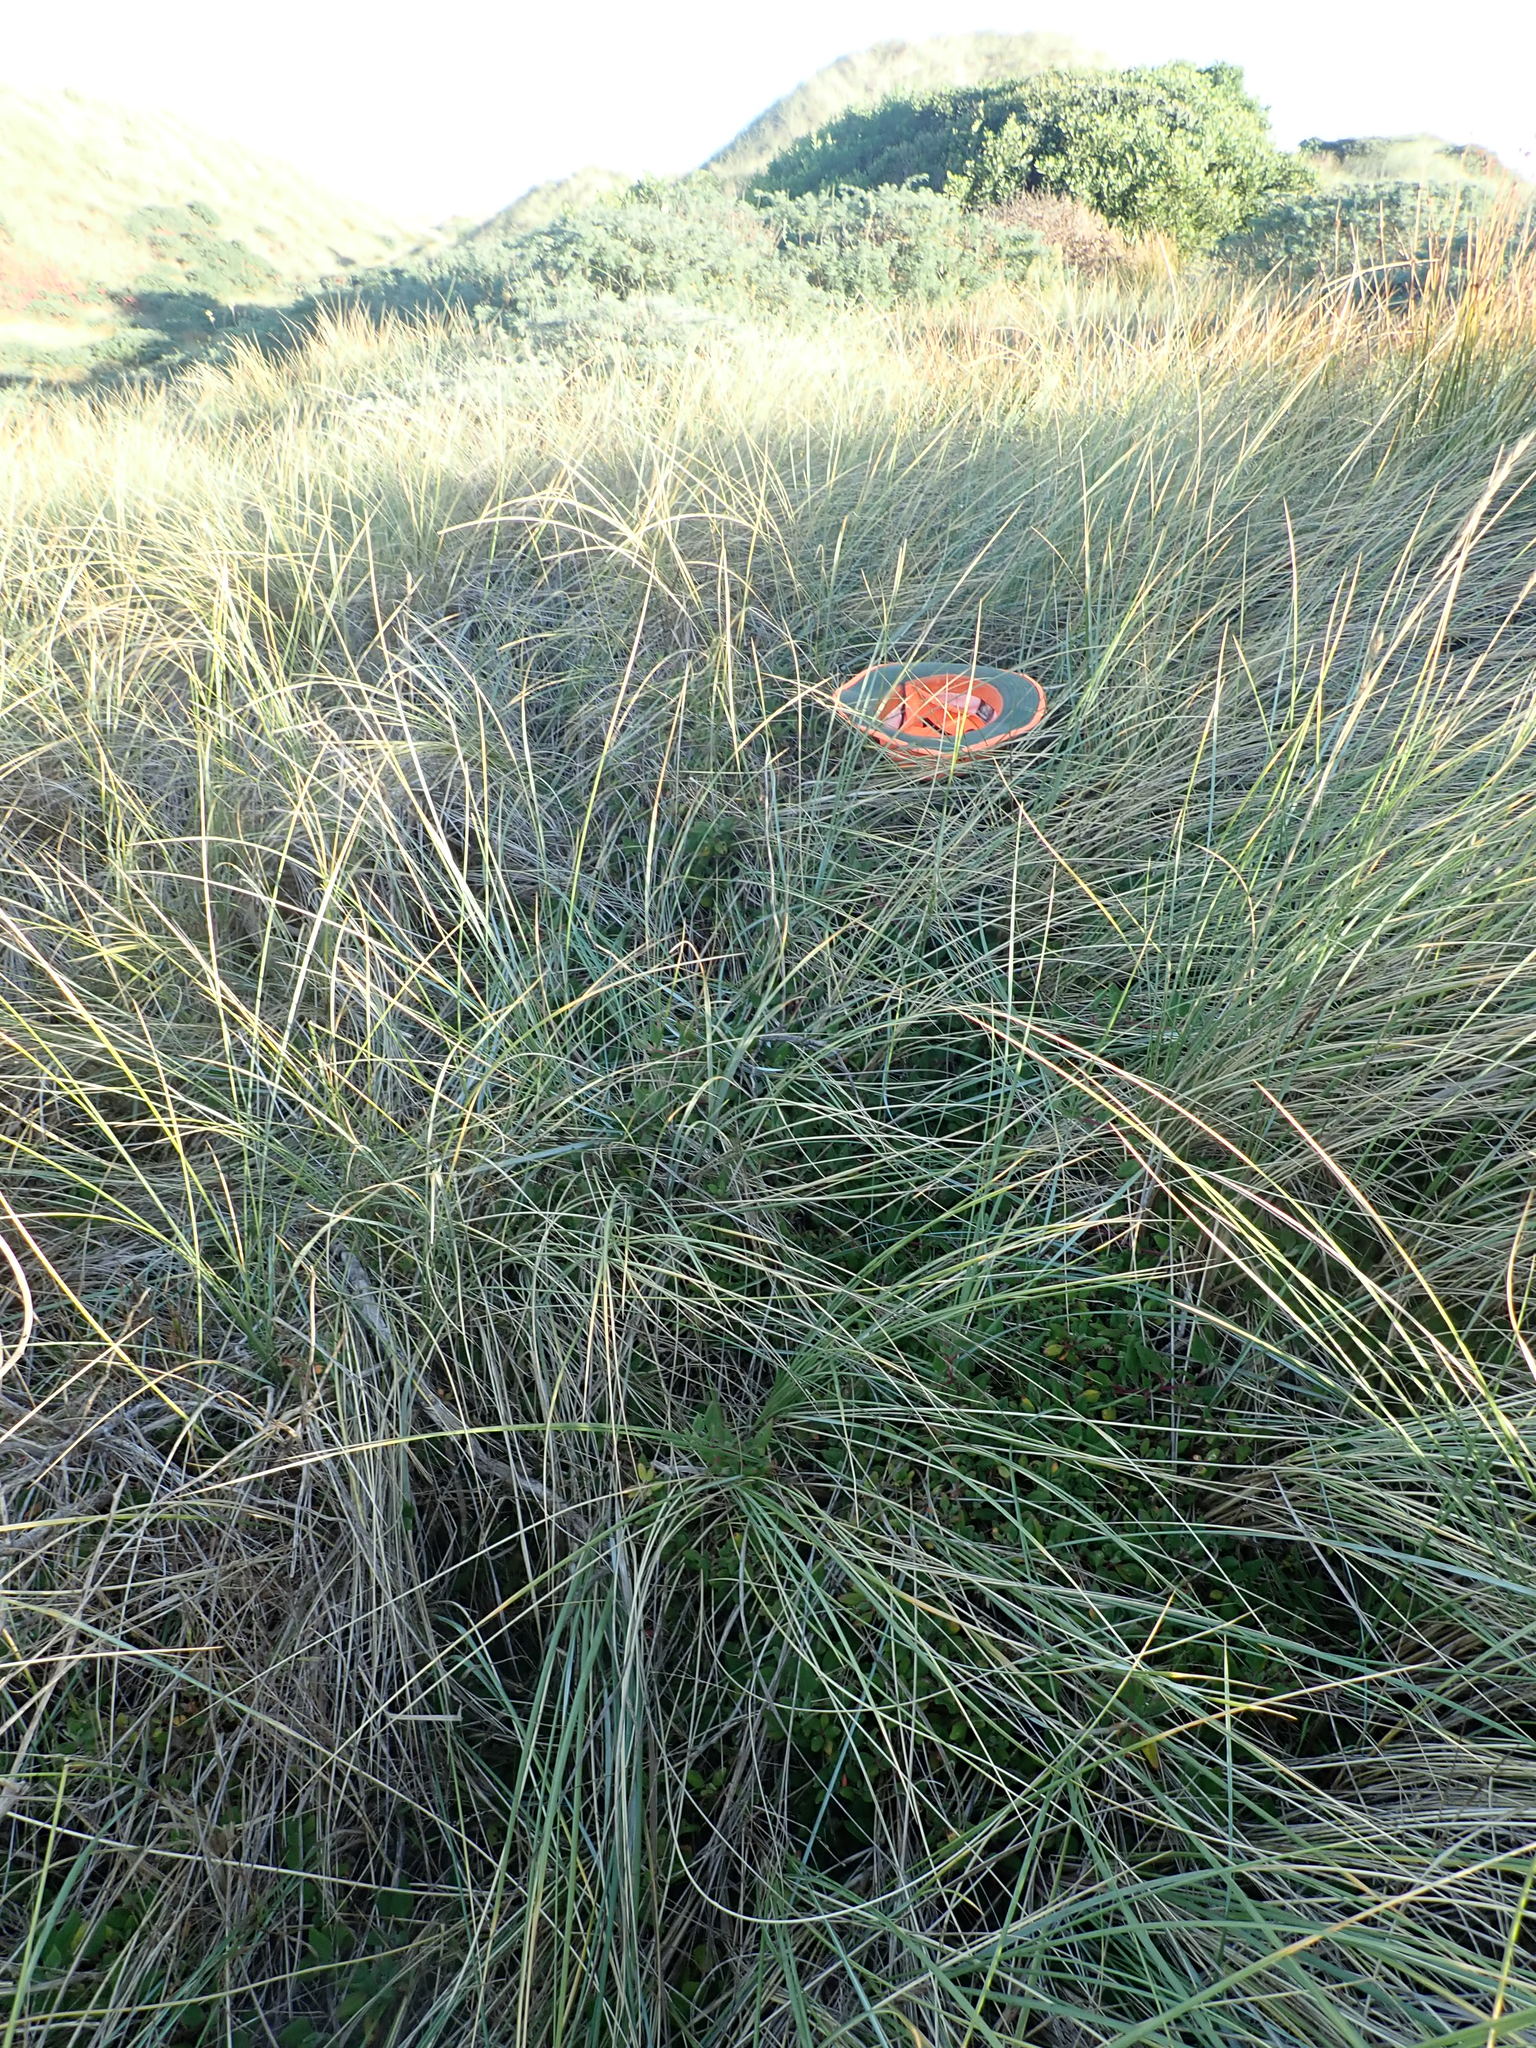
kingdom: Plantae
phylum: Tracheophyta
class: Magnoliopsida
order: Caryophyllales
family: Aizoaceae
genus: Tetragonia
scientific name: Tetragonia implexicoma
